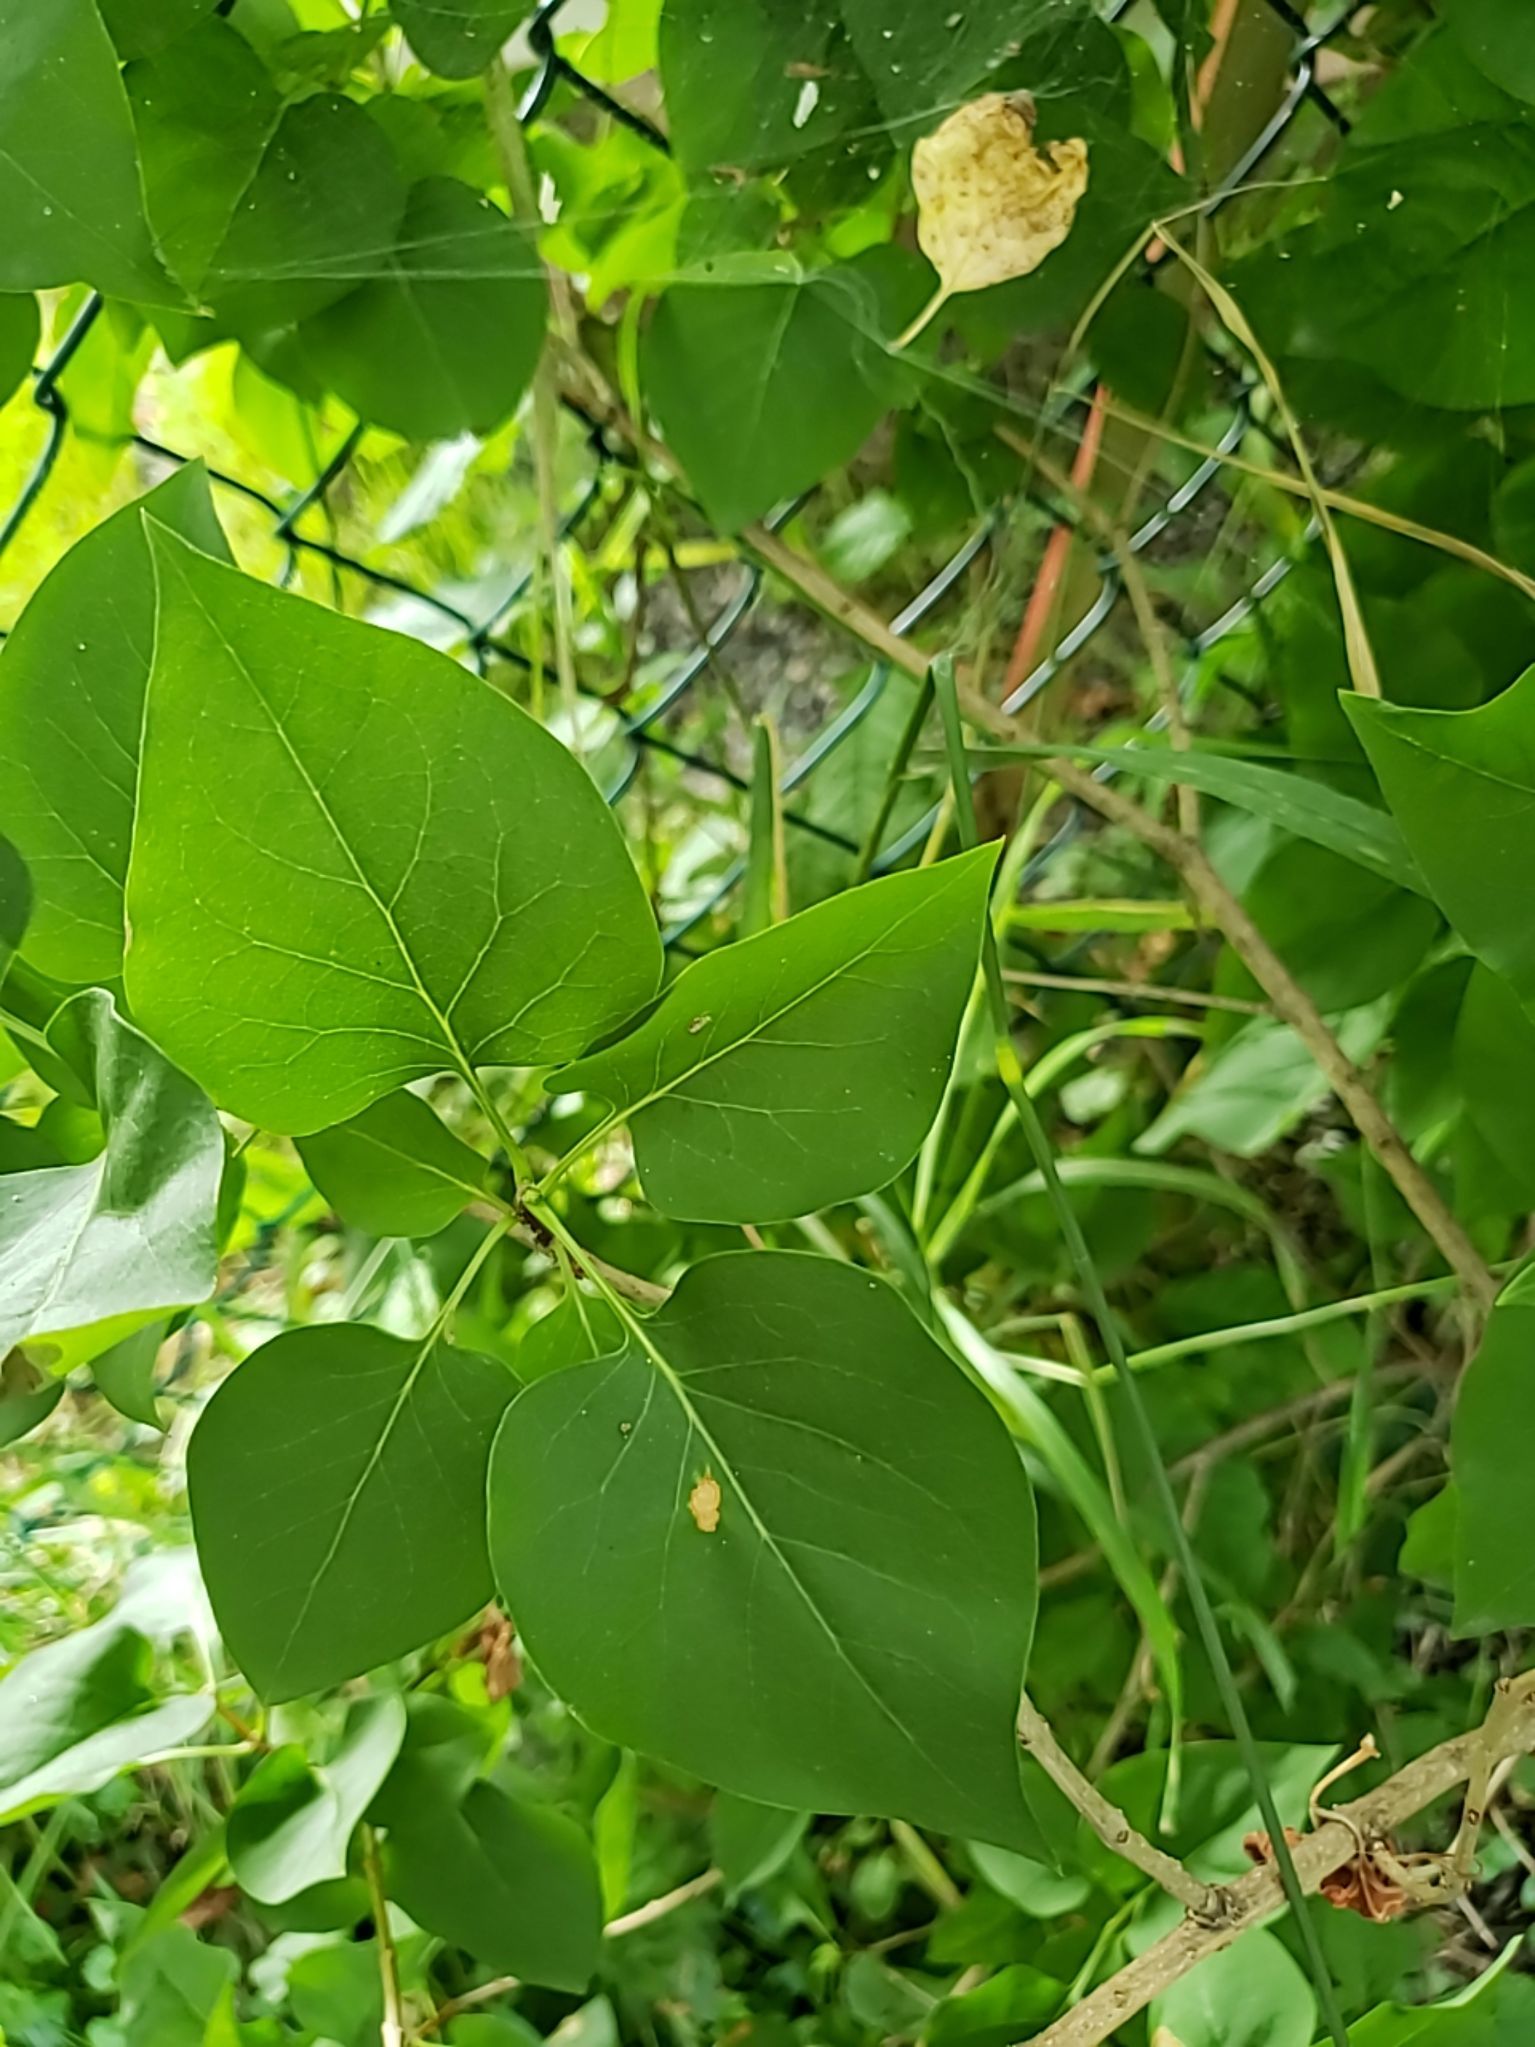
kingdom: Plantae
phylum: Tracheophyta
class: Magnoliopsida
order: Lamiales
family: Oleaceae
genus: Syringa
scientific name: Syringa vulgaris
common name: Common lilac
